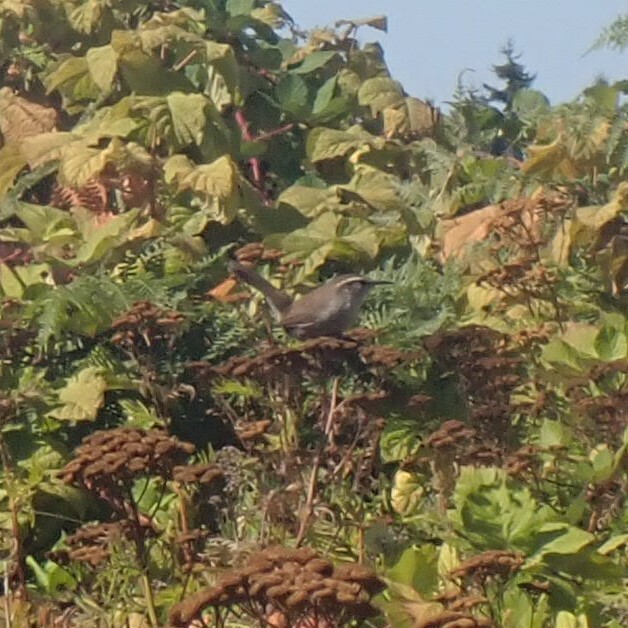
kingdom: Animalia
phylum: Chordata
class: Aves
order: Passeriformes
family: Troglodytidae
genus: Thryomanes
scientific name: Thryomanes bewickii
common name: Bewick's wren
